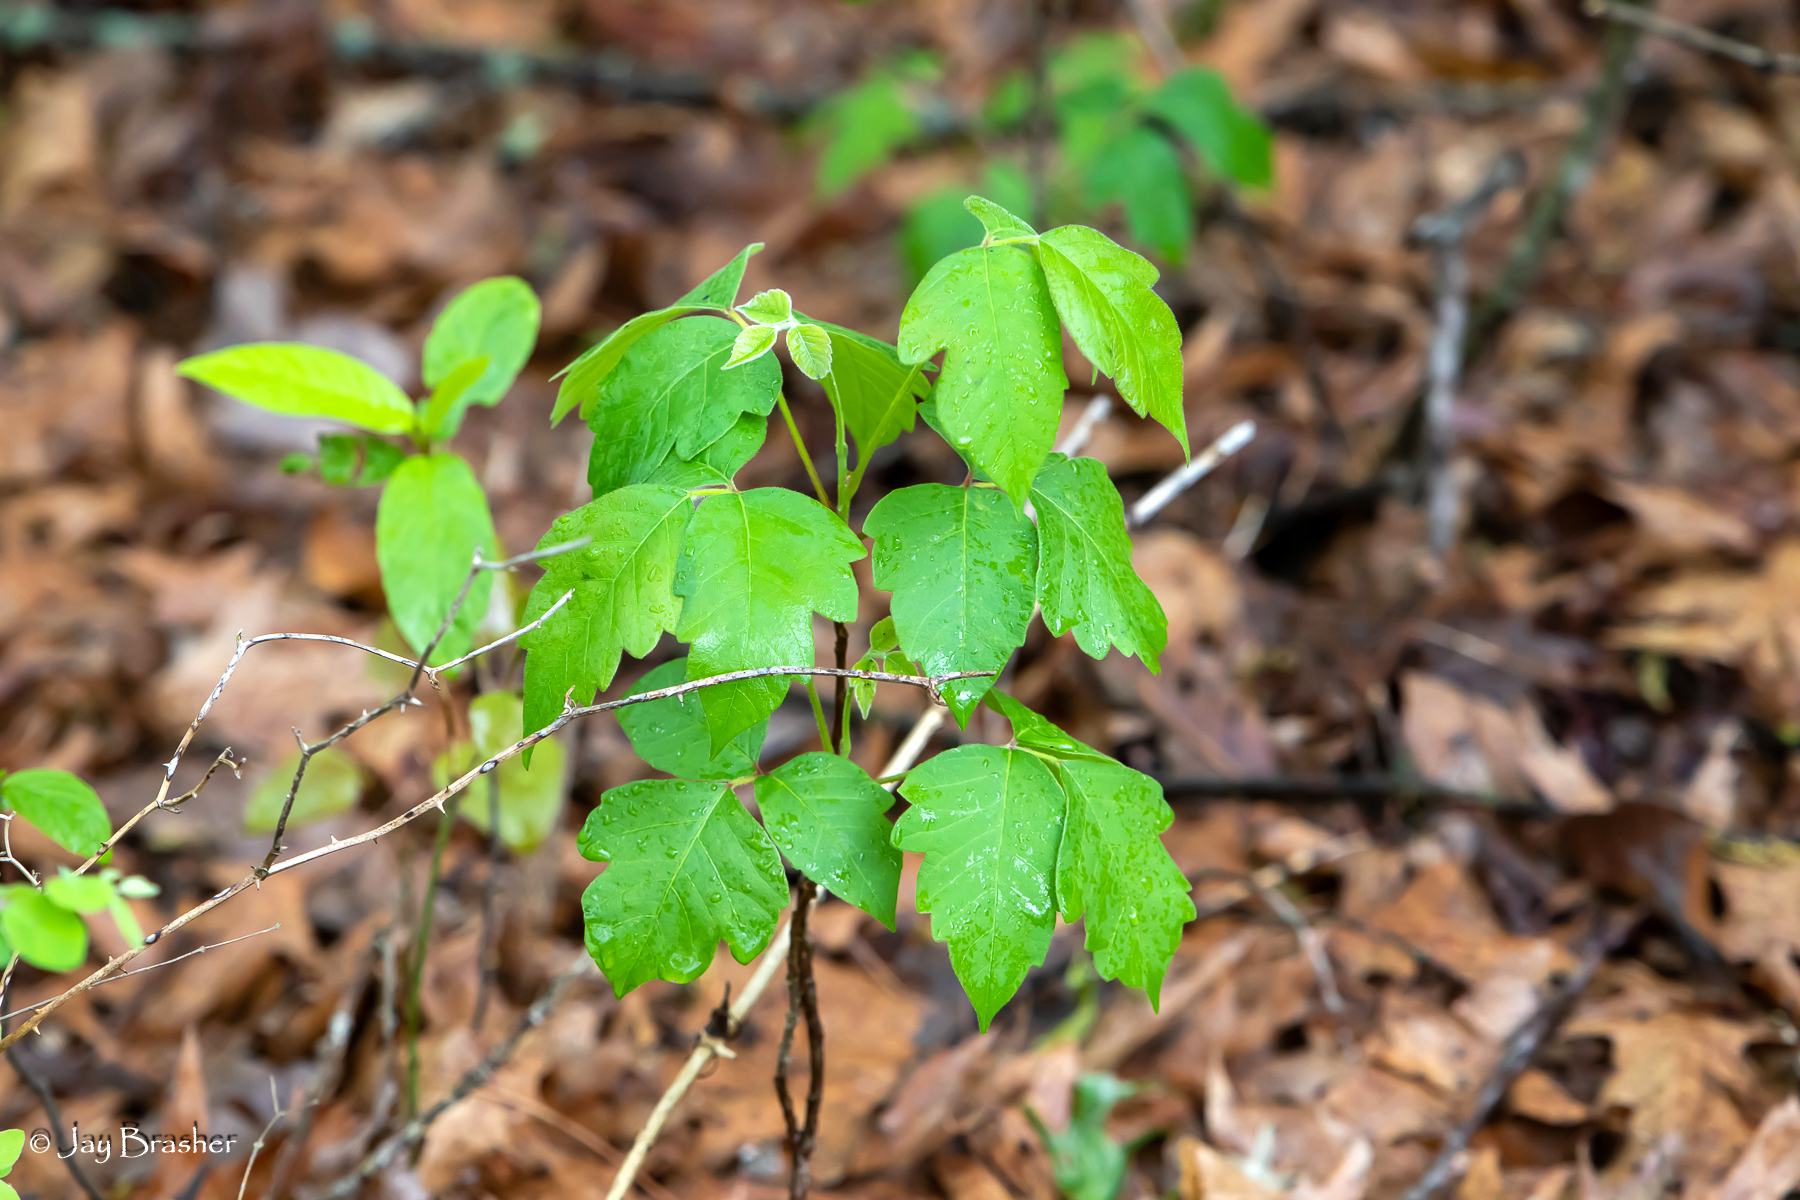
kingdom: Plantae
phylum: Tracheophyta
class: Magnoliopsida
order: Sapindales
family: Anacardiaceae
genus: Toxicodendron
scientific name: Toxicodendron radicans
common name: Poison ivy
